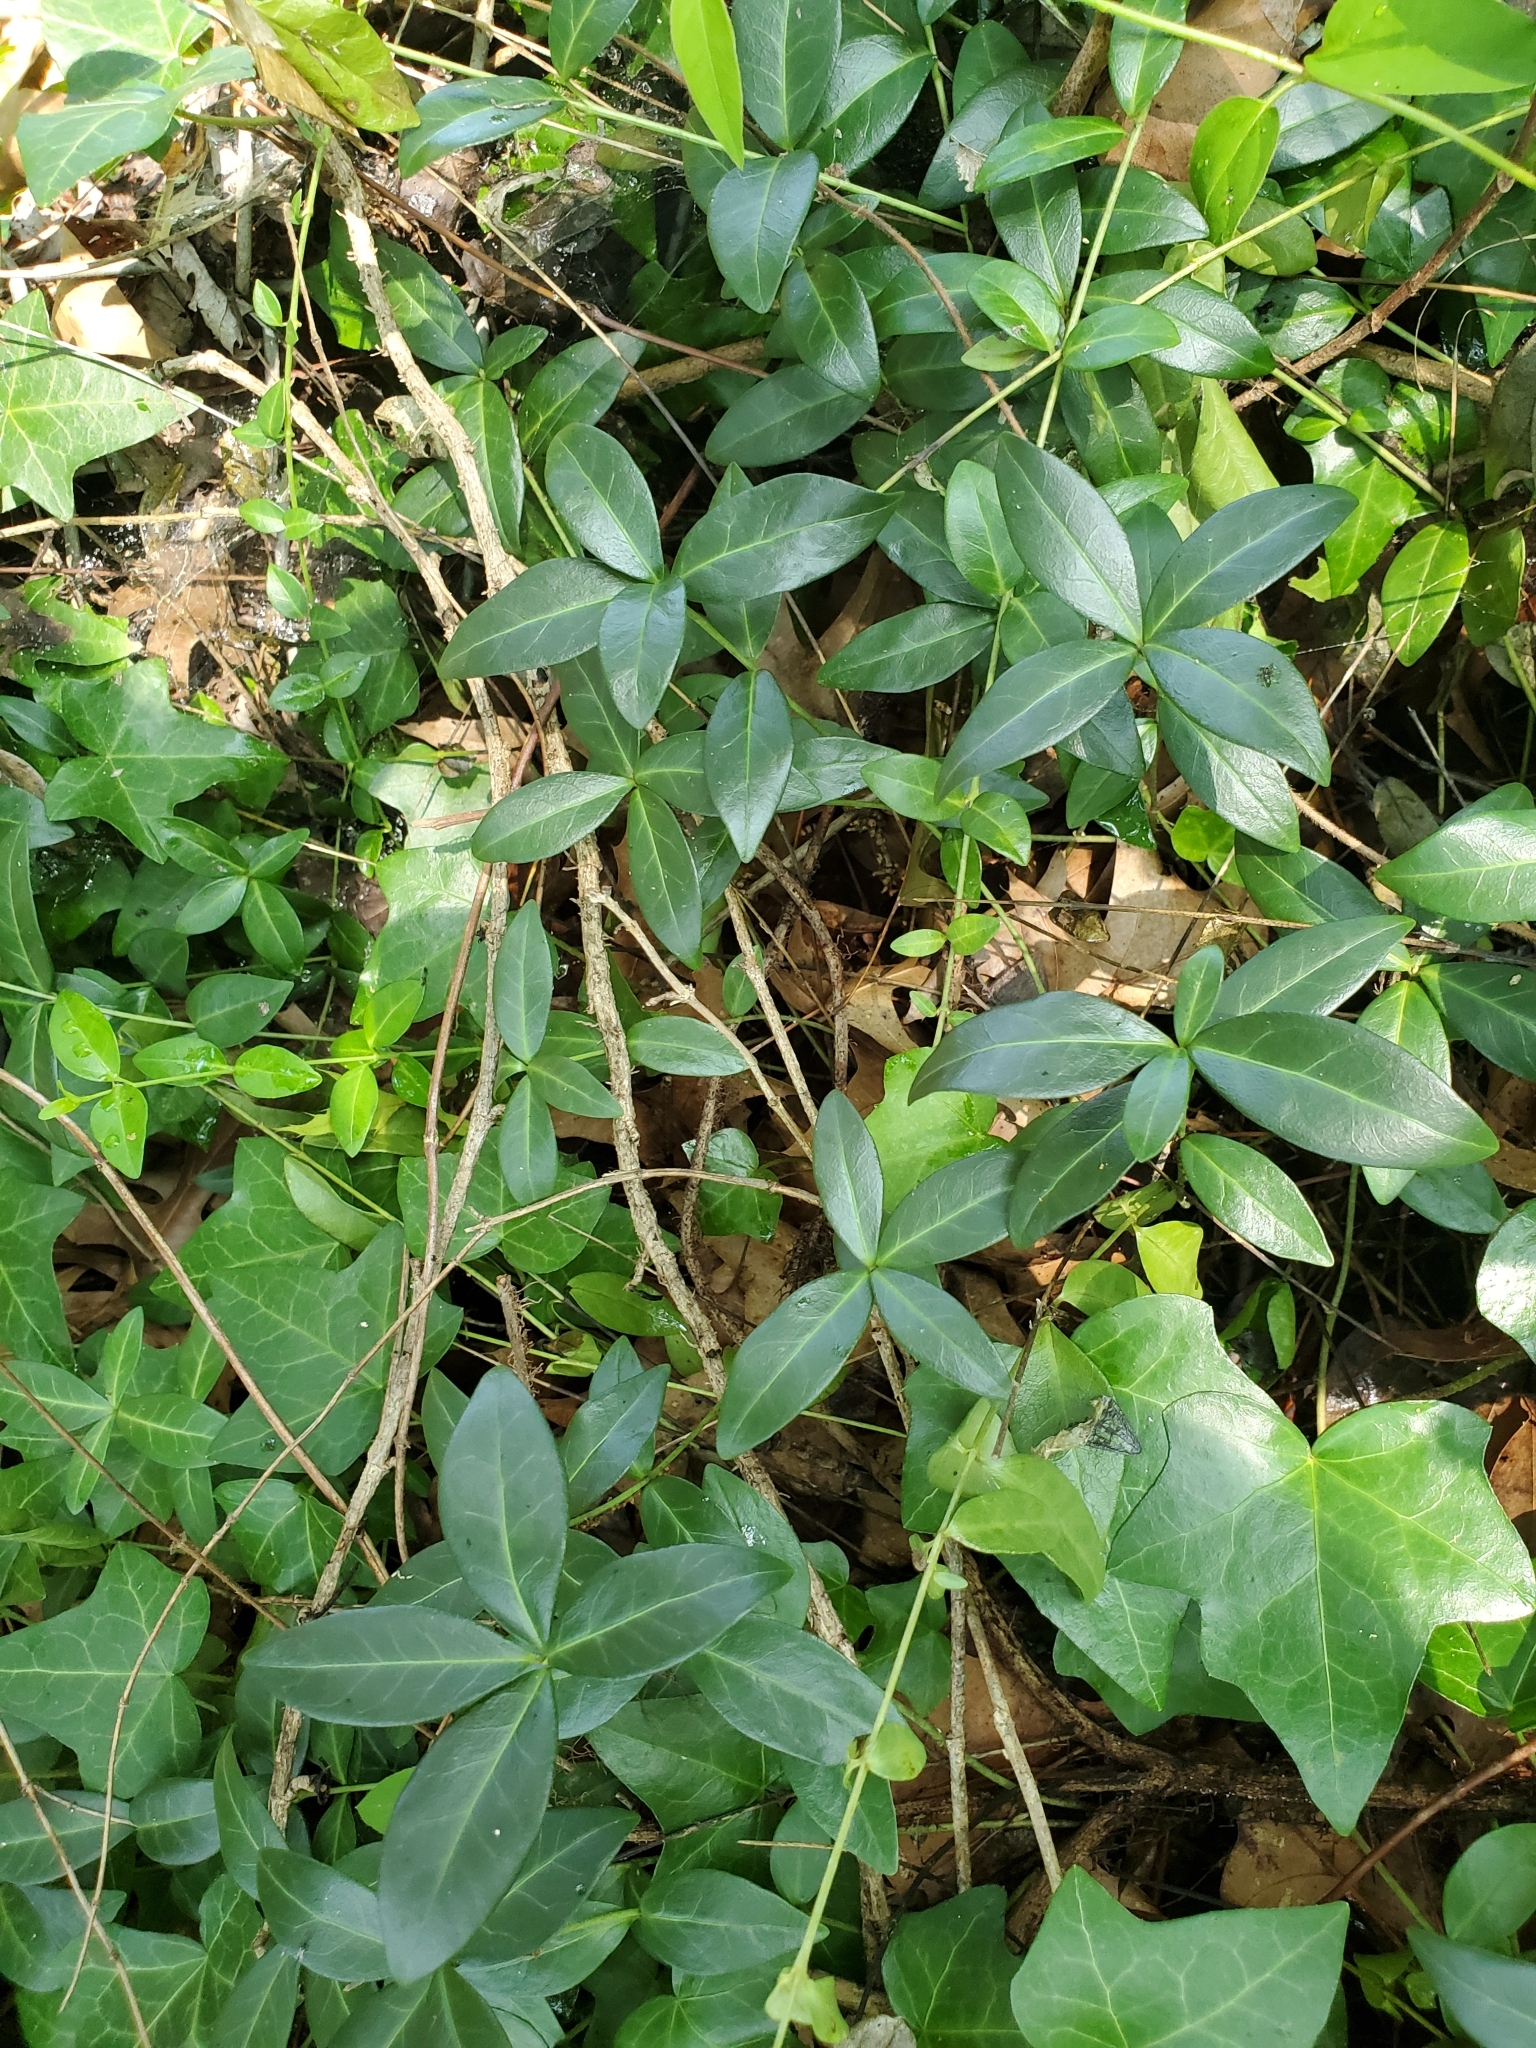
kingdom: Plantae
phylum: Tracheophyta
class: Magnoliopsida
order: Gentianales
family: Apocynaceae
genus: Vinca
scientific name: Vinca minor
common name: Lesser periwinkle
